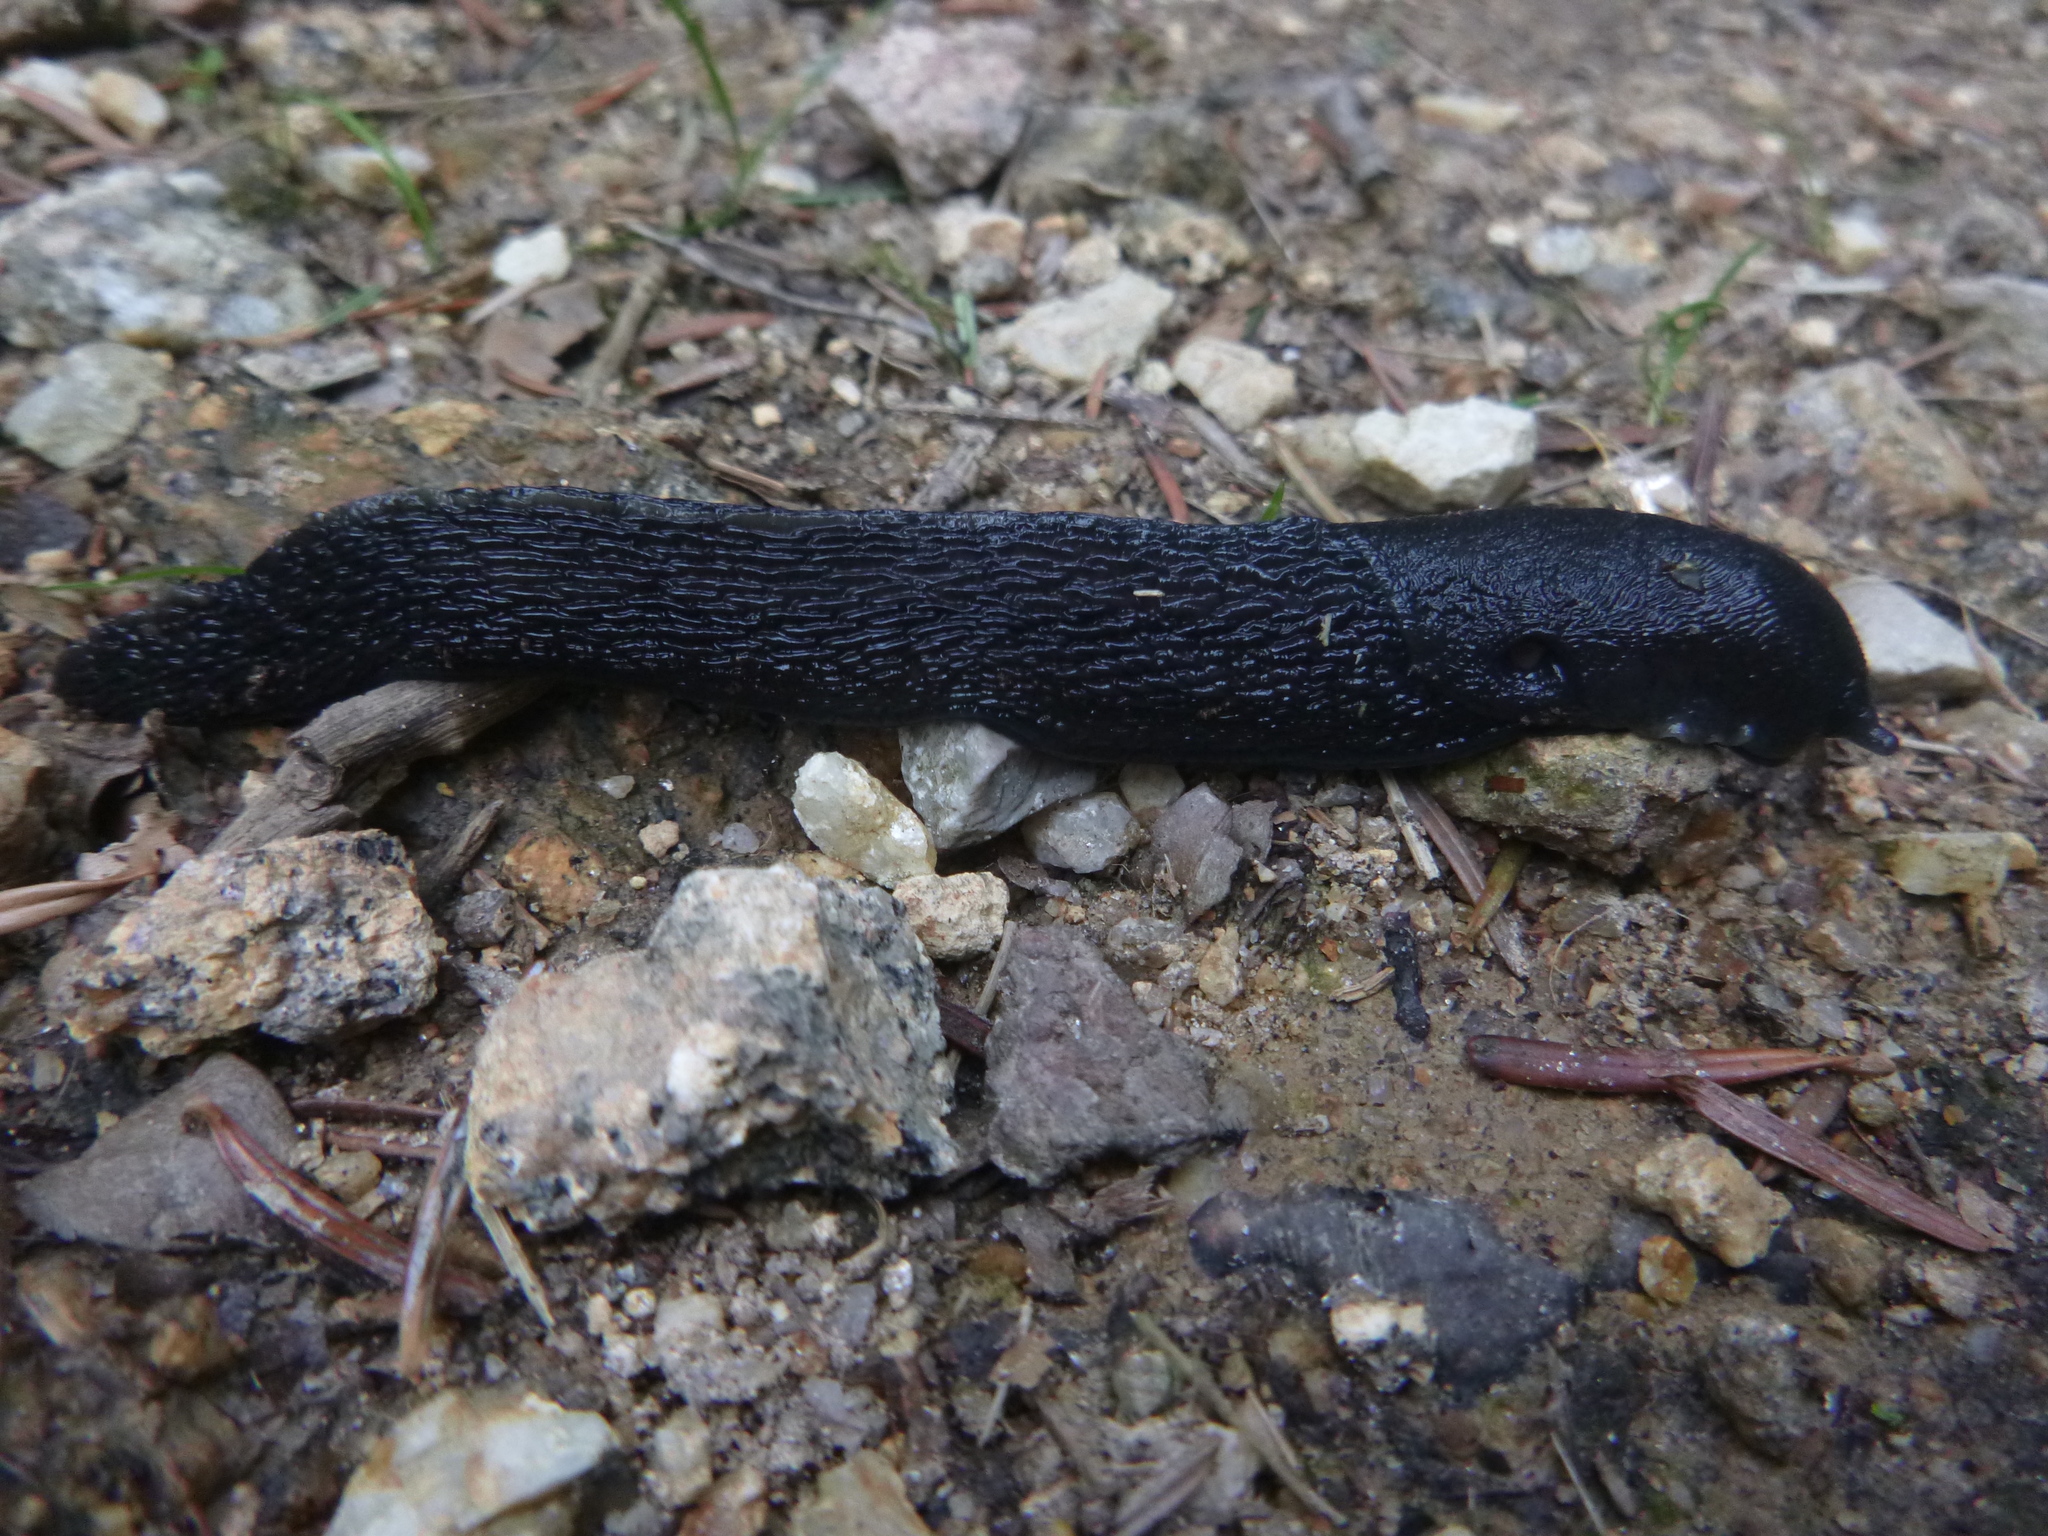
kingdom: Animalia
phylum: Mollusca
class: Gastropoda
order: Stylommatophora
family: Limacidae
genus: Limax
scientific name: Limax cinereoniger
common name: Ash-black slug
